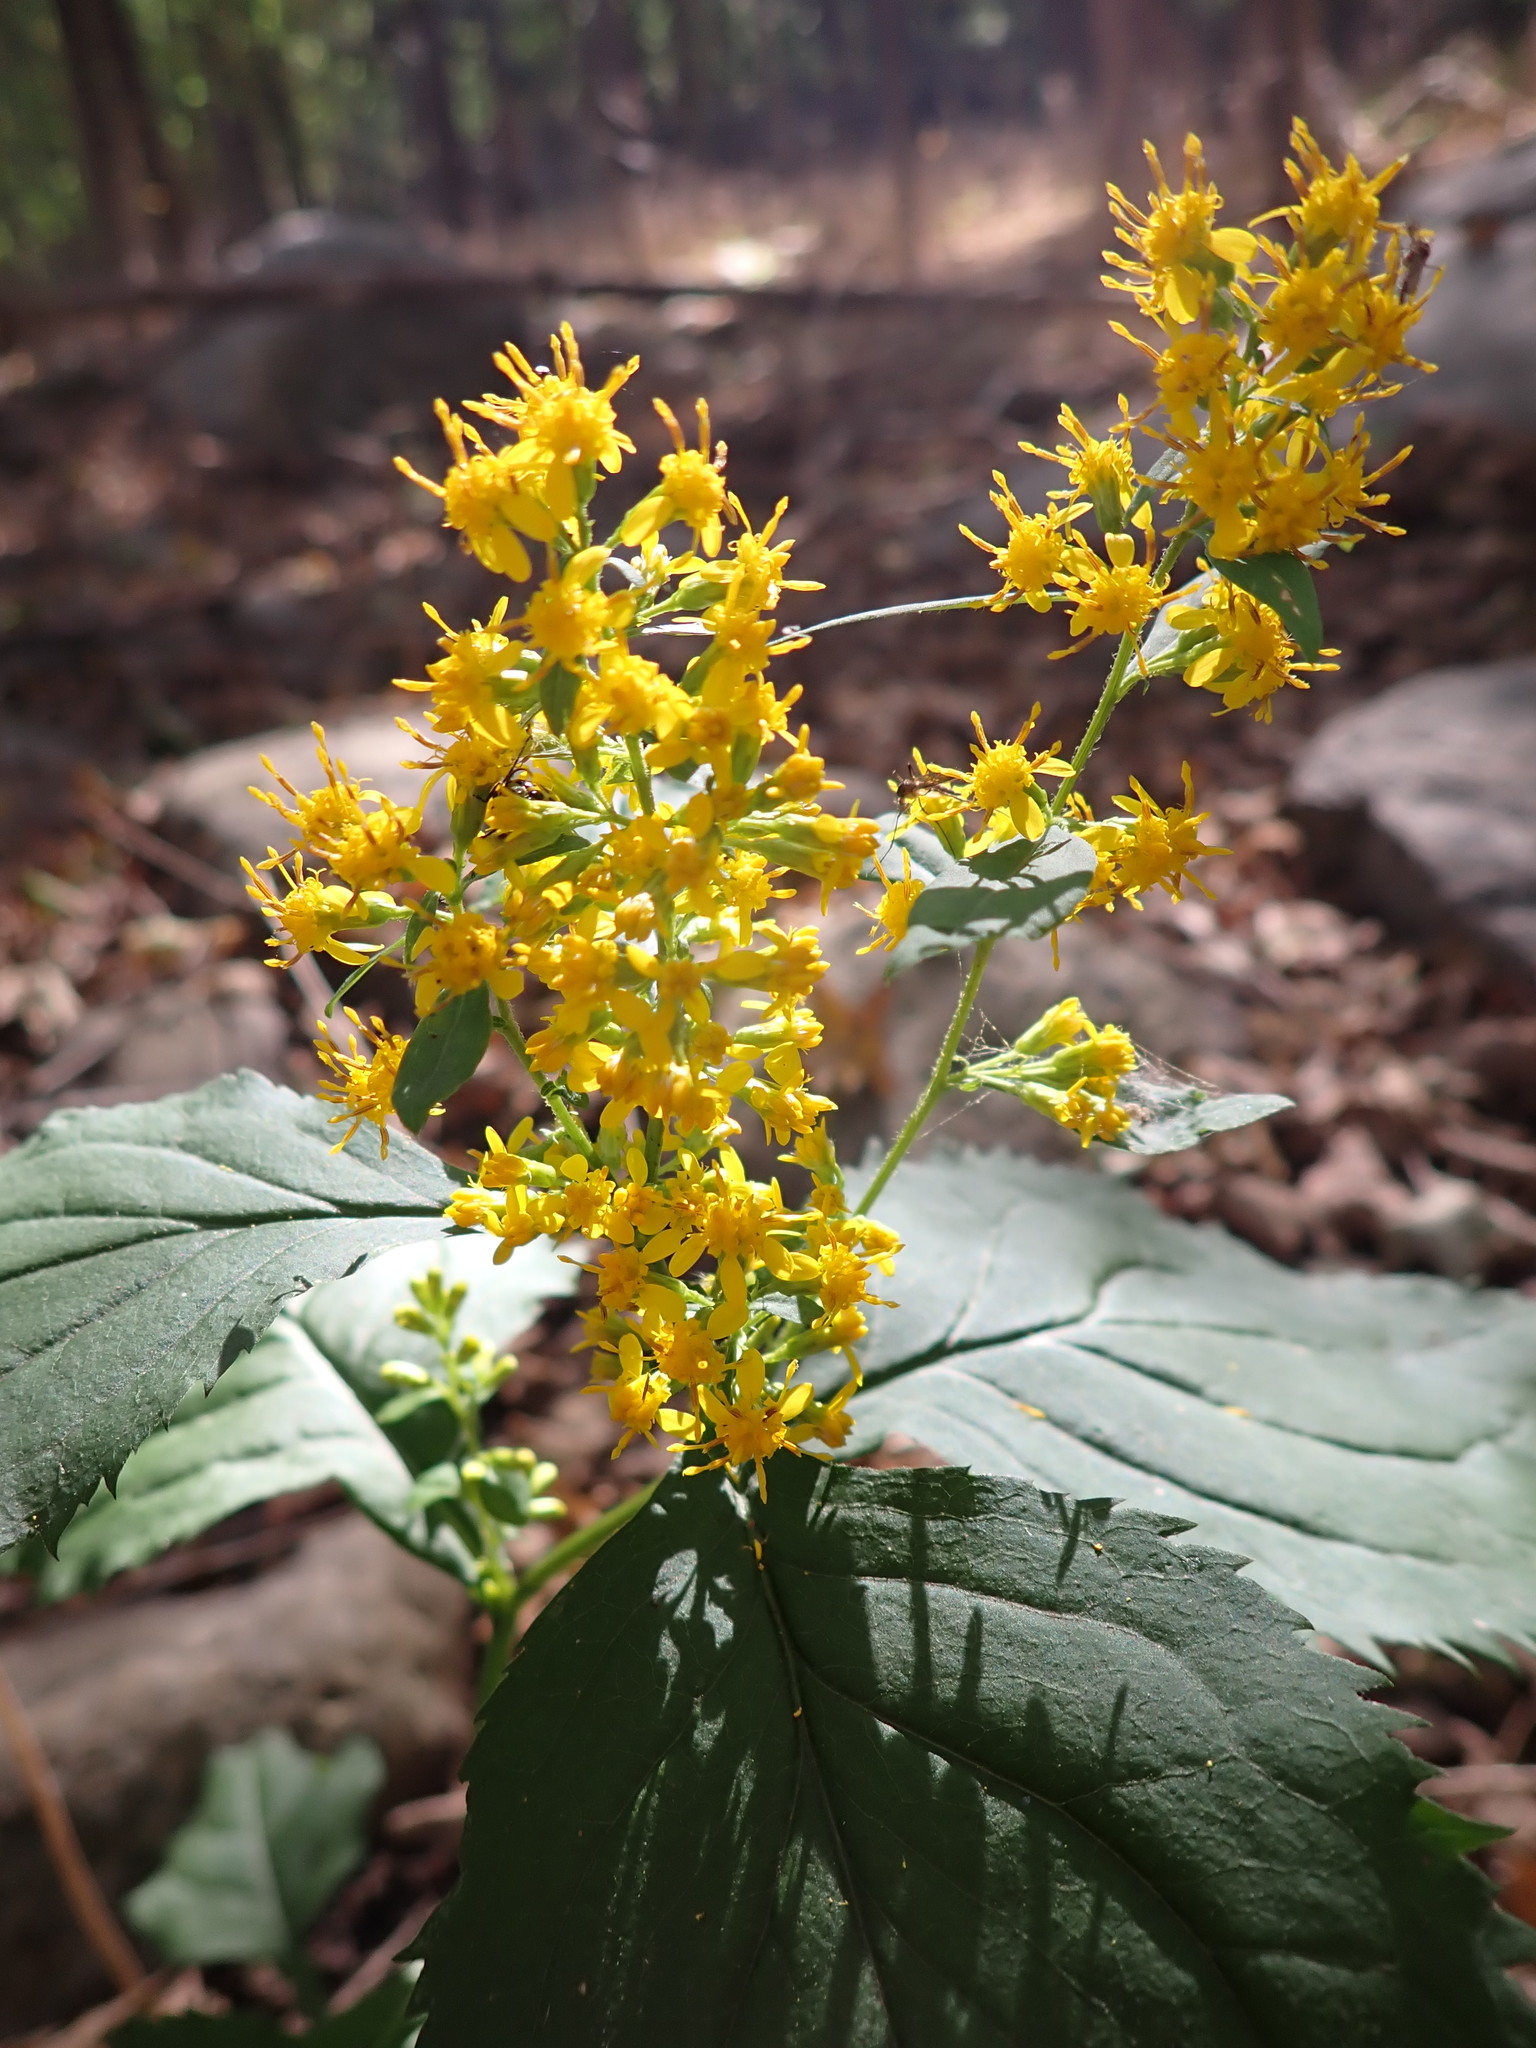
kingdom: Plantae
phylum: Tracheophyta
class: Magnoliopsida
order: Asterales
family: Asteraceae
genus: Solidago
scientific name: Solidago flexicaulis
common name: Zig-zag goldenrod
